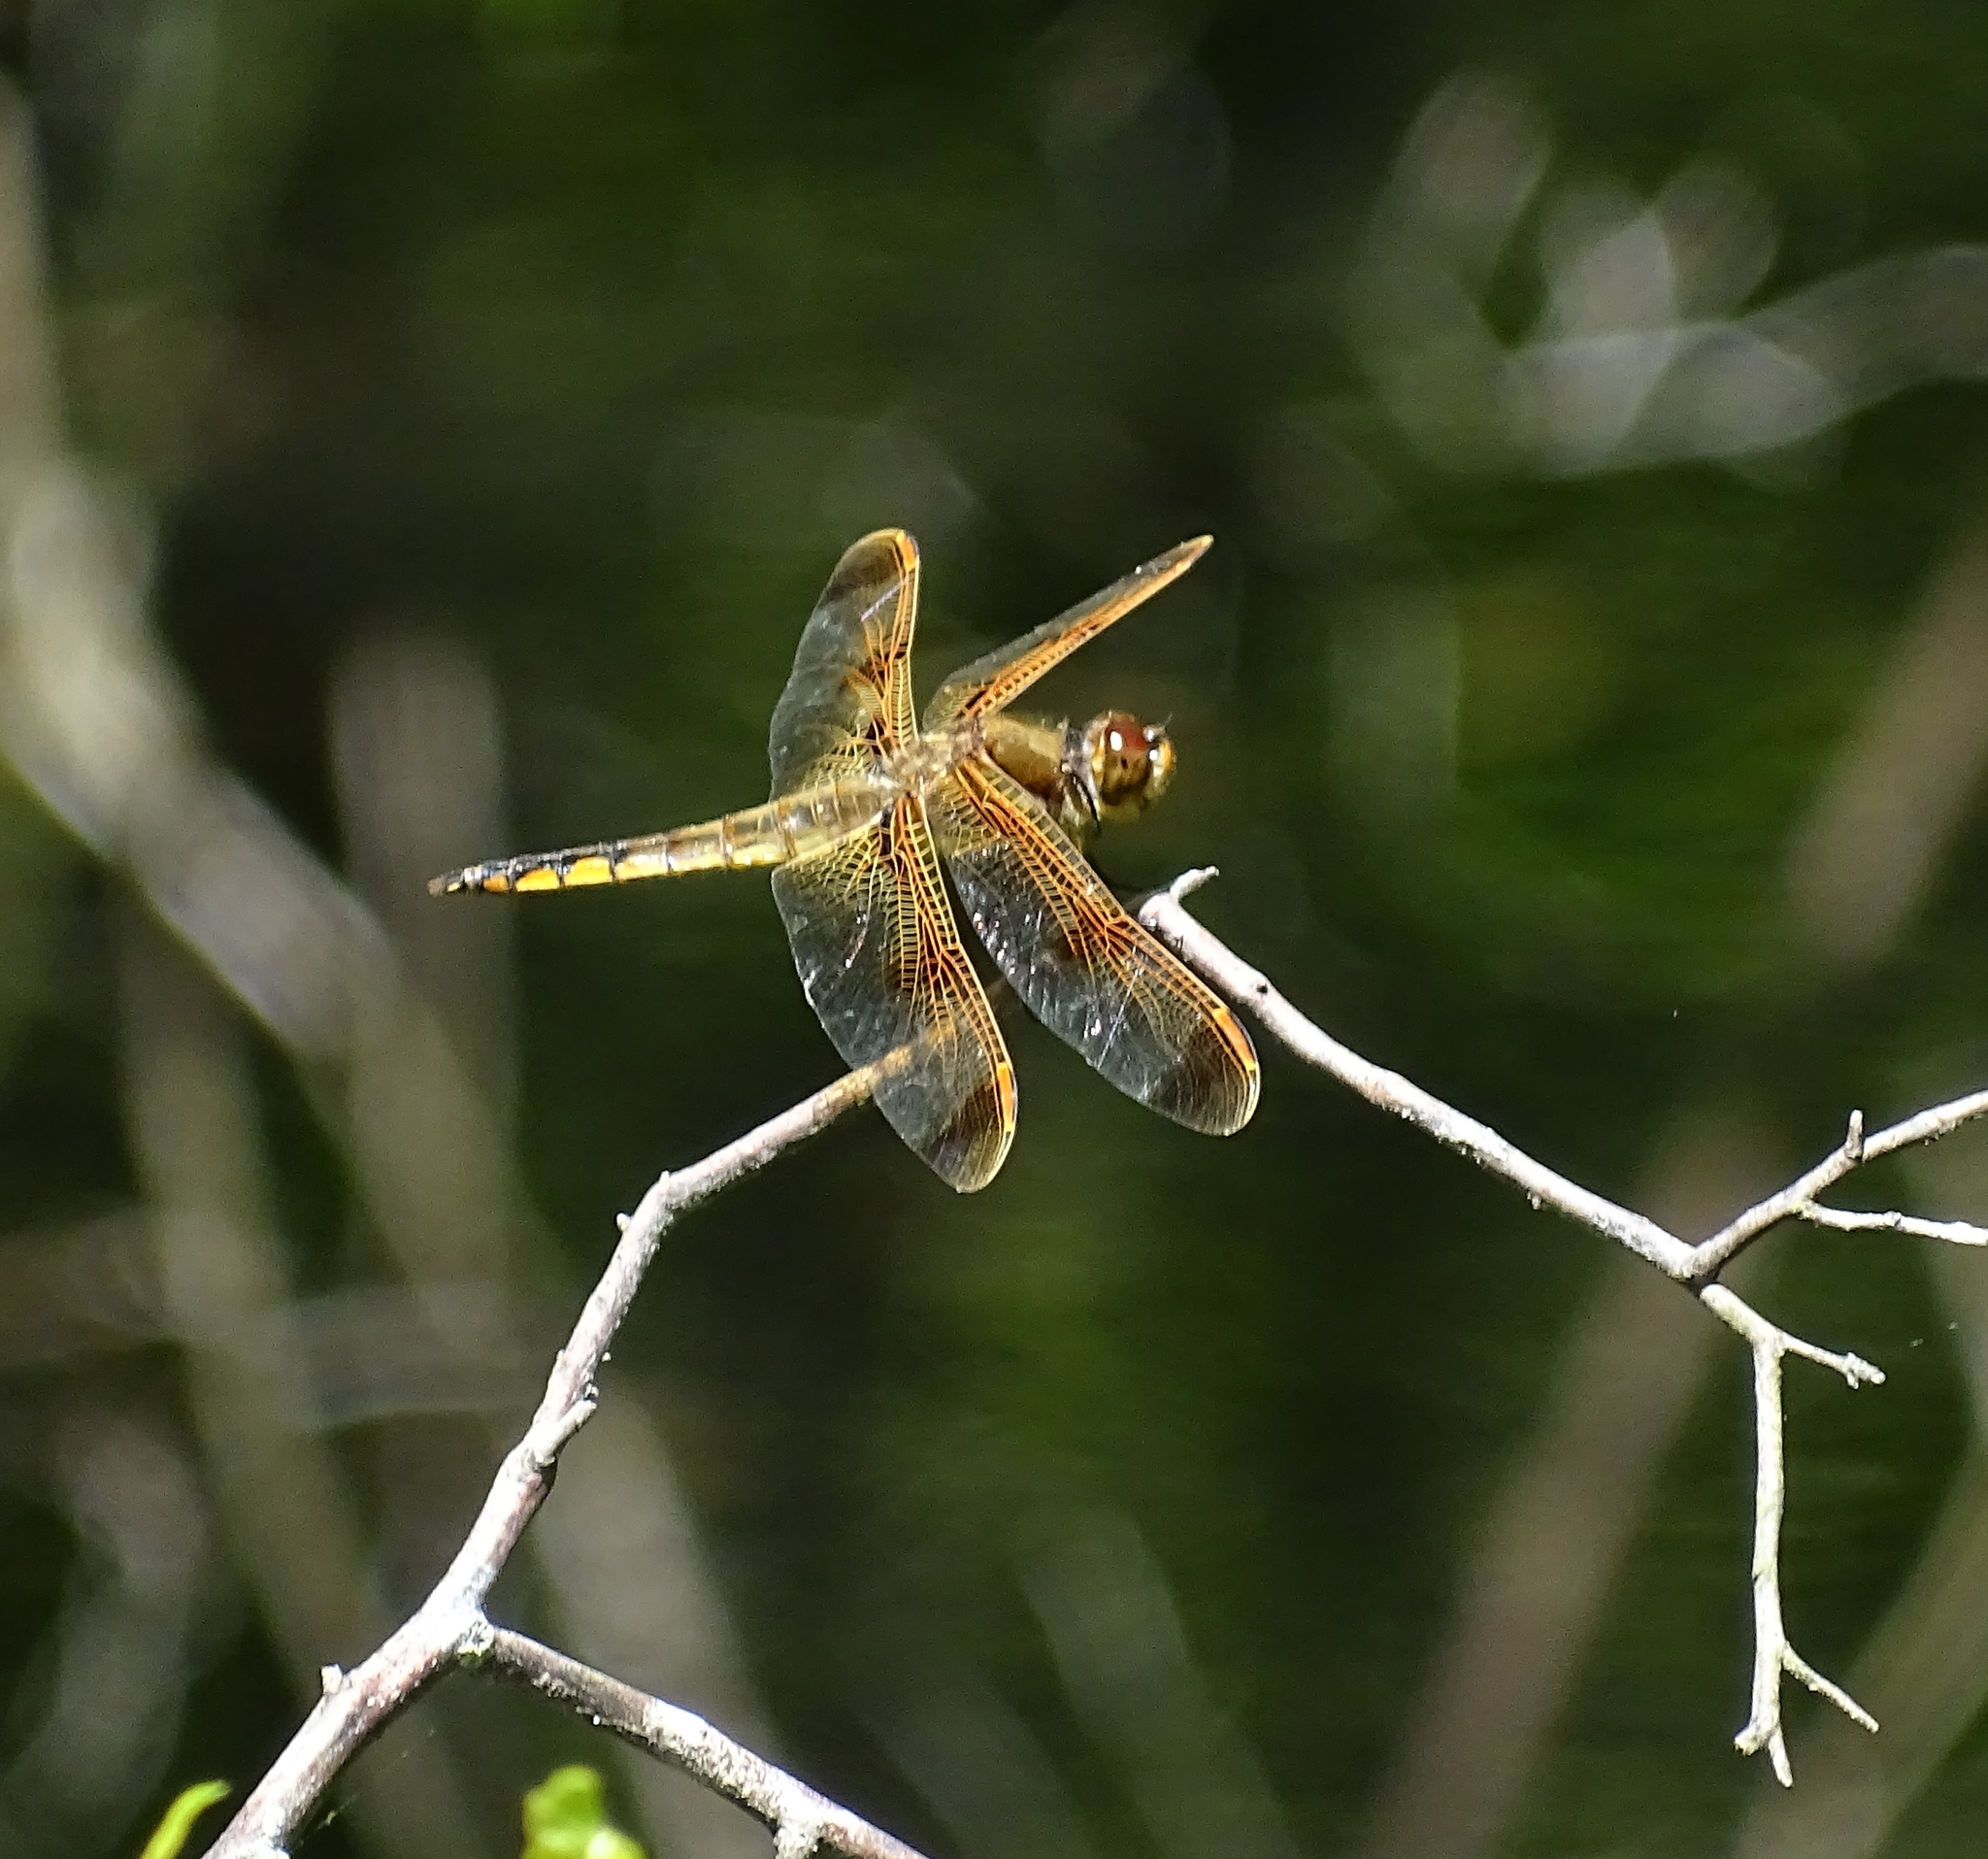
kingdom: Animalia
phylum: Arthropoda
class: Insecta
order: Odonata
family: Libellulidae
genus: Libellula
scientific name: Libellula semifasciata
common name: Painted skimmer
